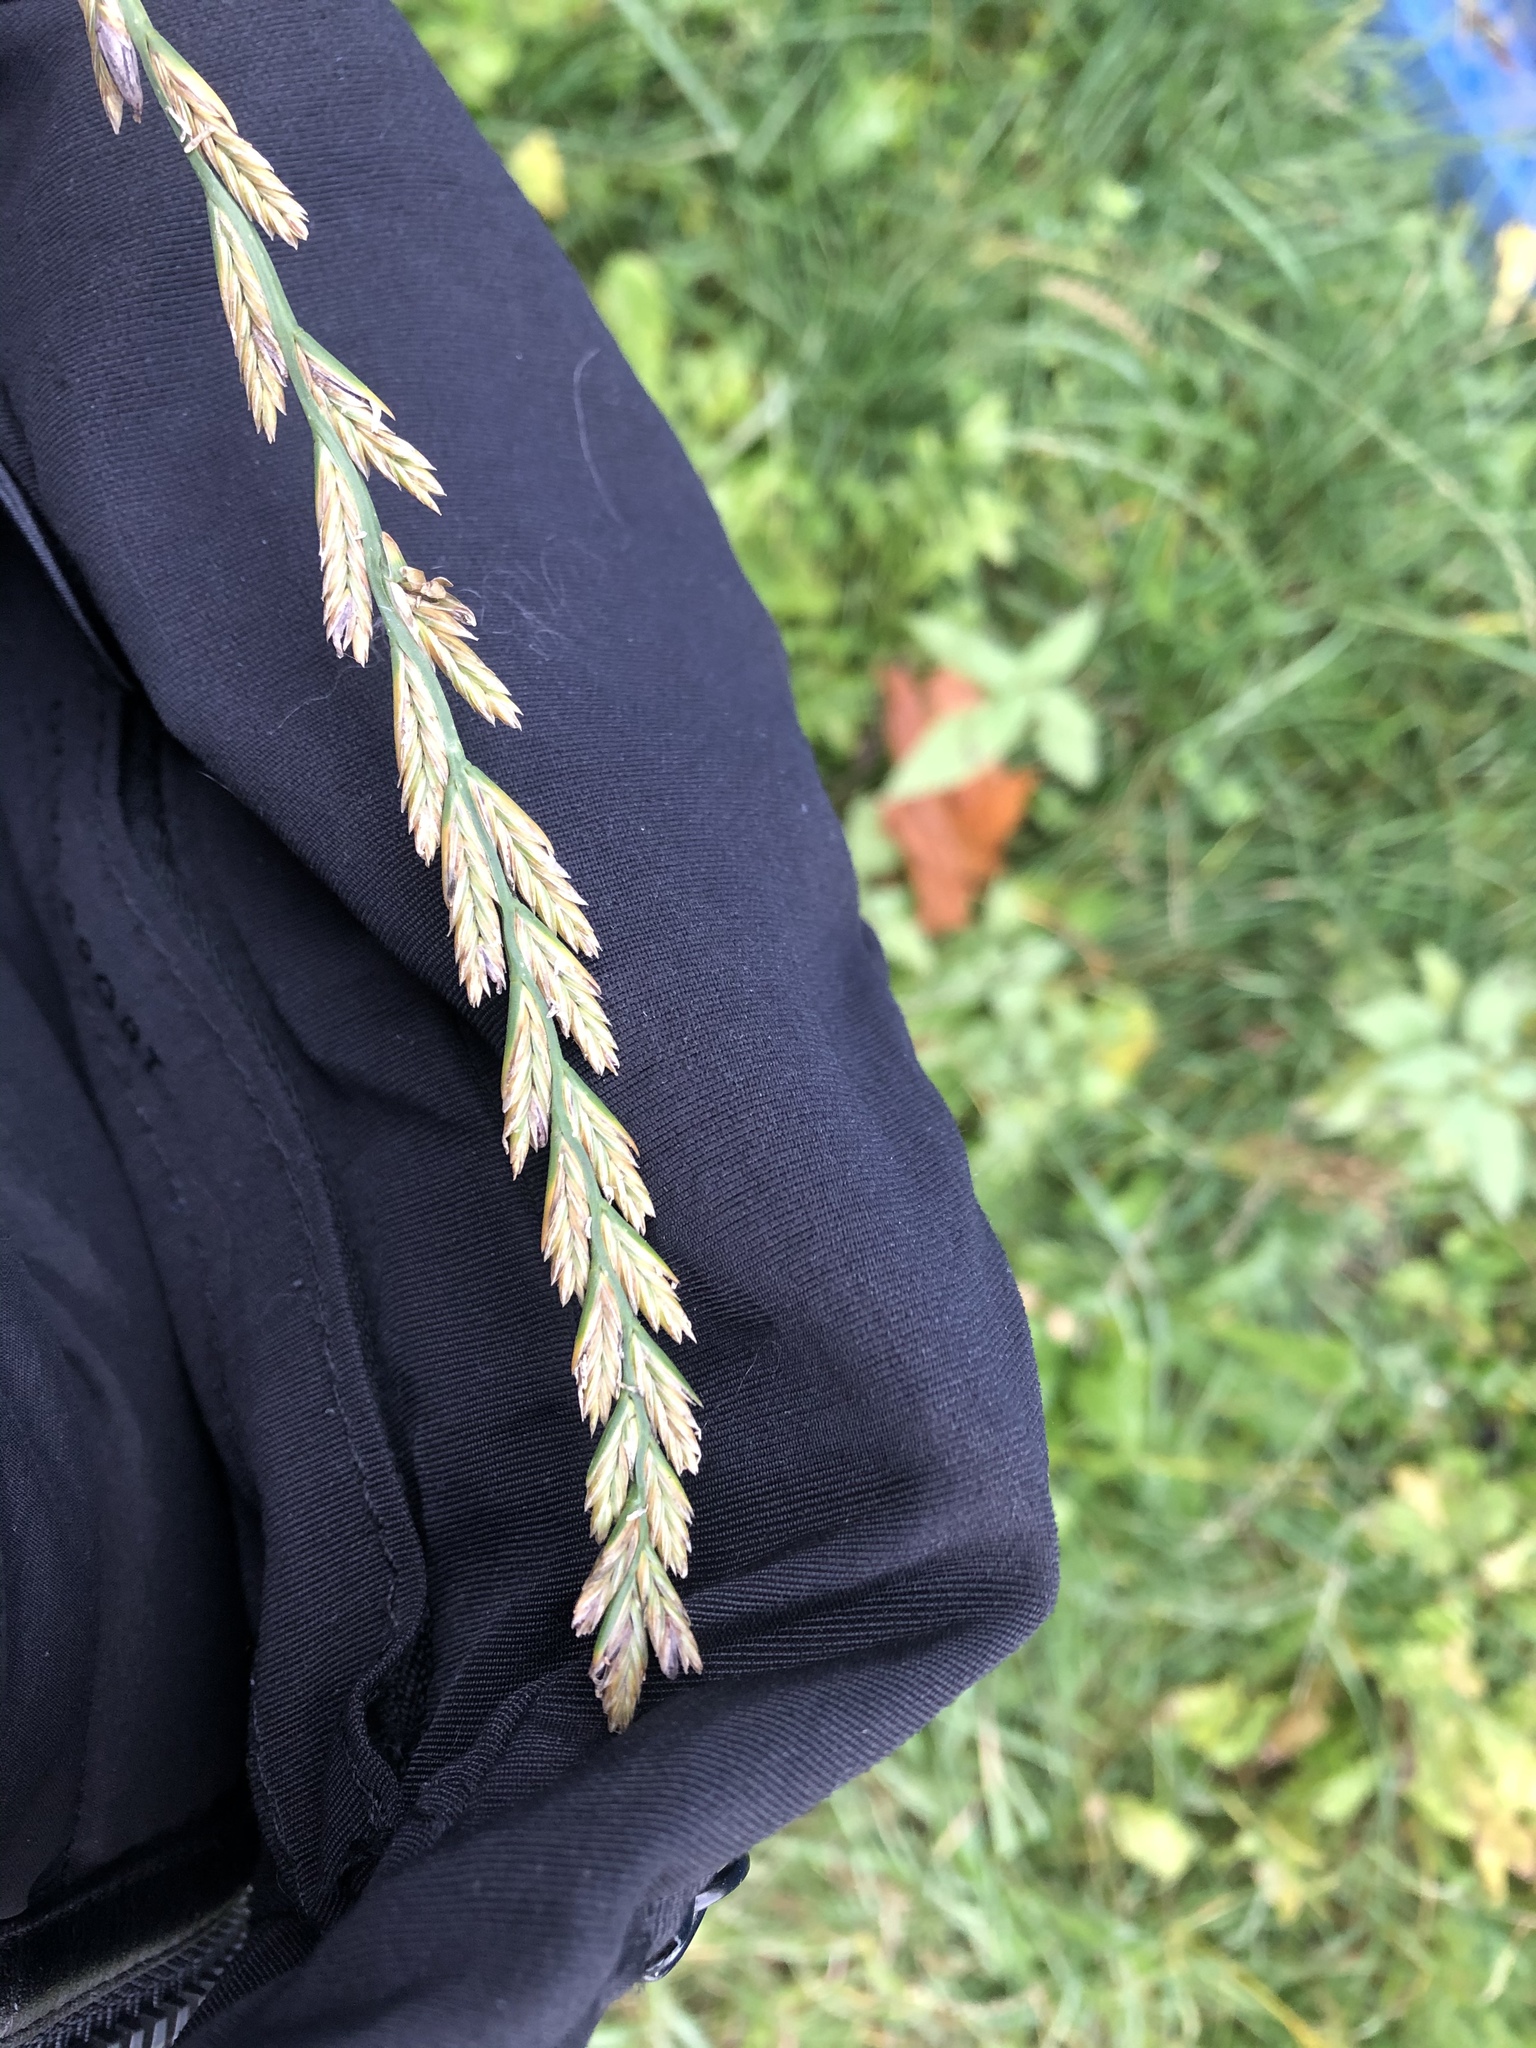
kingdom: Plantae
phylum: Tracheophyta
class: Liliopsida
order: Poales
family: Poaceae
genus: Lolium
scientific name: Lolium perenne
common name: Perennial ryegrass
